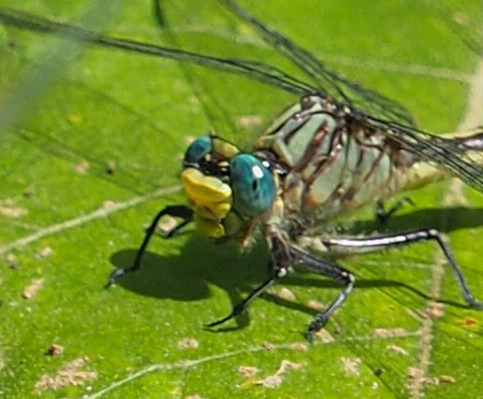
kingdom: Animalia
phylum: Arthropoda
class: Insecta
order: Odonata
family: Gomphidae
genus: Arigomphus
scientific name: Arigomphus villosipes
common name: Unicorn clubtail
